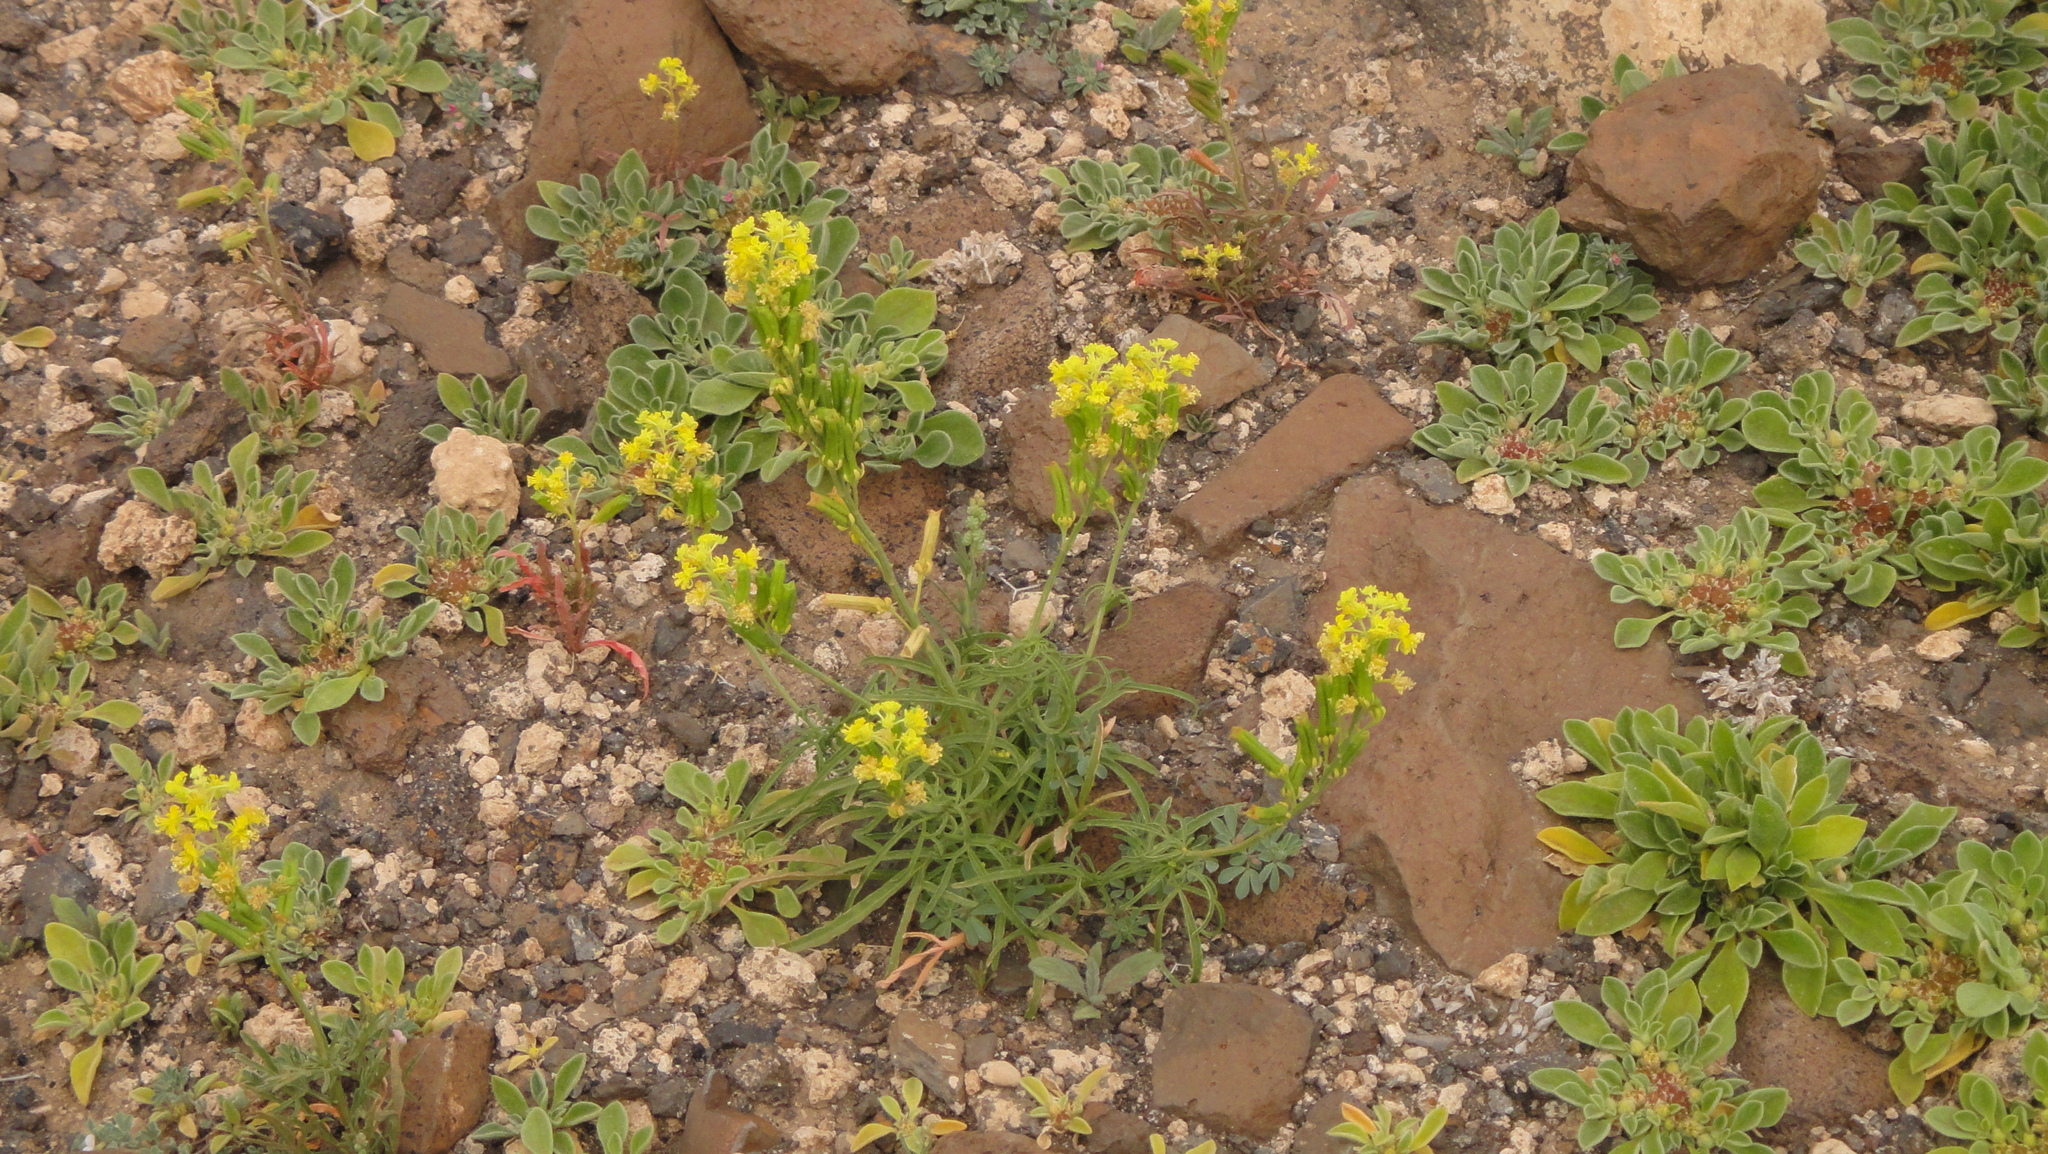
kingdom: Plantae
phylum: Tracheophyta
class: Magnoliopsida
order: Brassicales
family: Resedaceae
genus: Reseda
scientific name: Reseda crystallina
